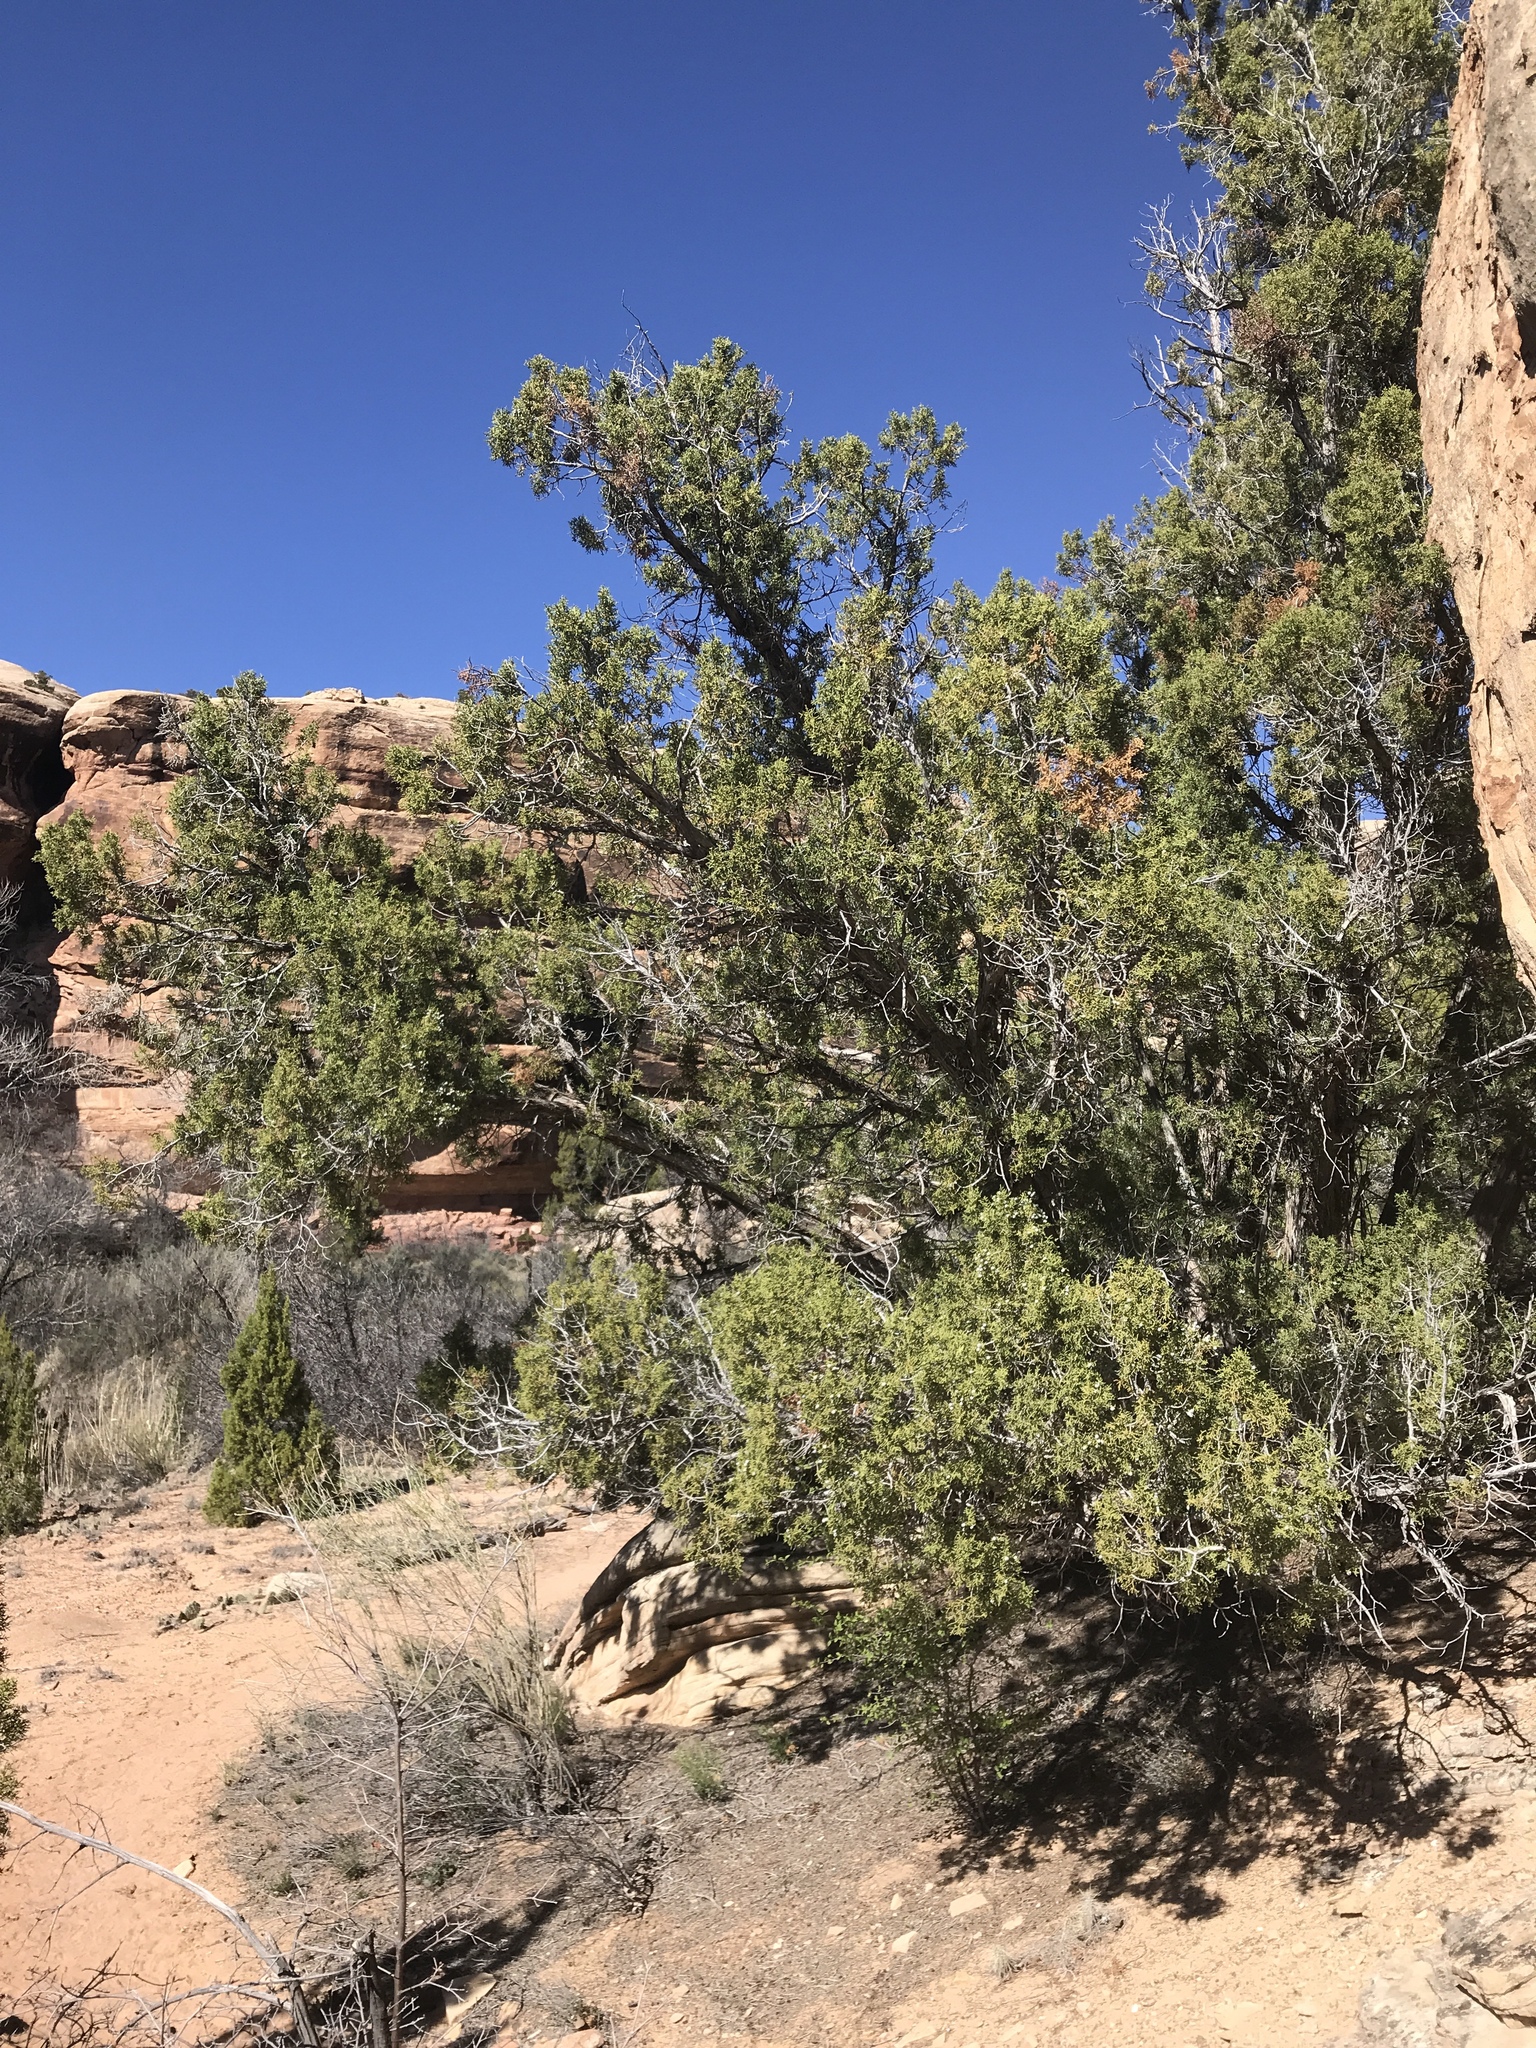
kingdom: Plantae
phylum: Tracheophyta
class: Pinopsida
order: Pinales
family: Cupressaceae
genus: Juniperus
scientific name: Juniperus osteosperma
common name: Utah juniper
